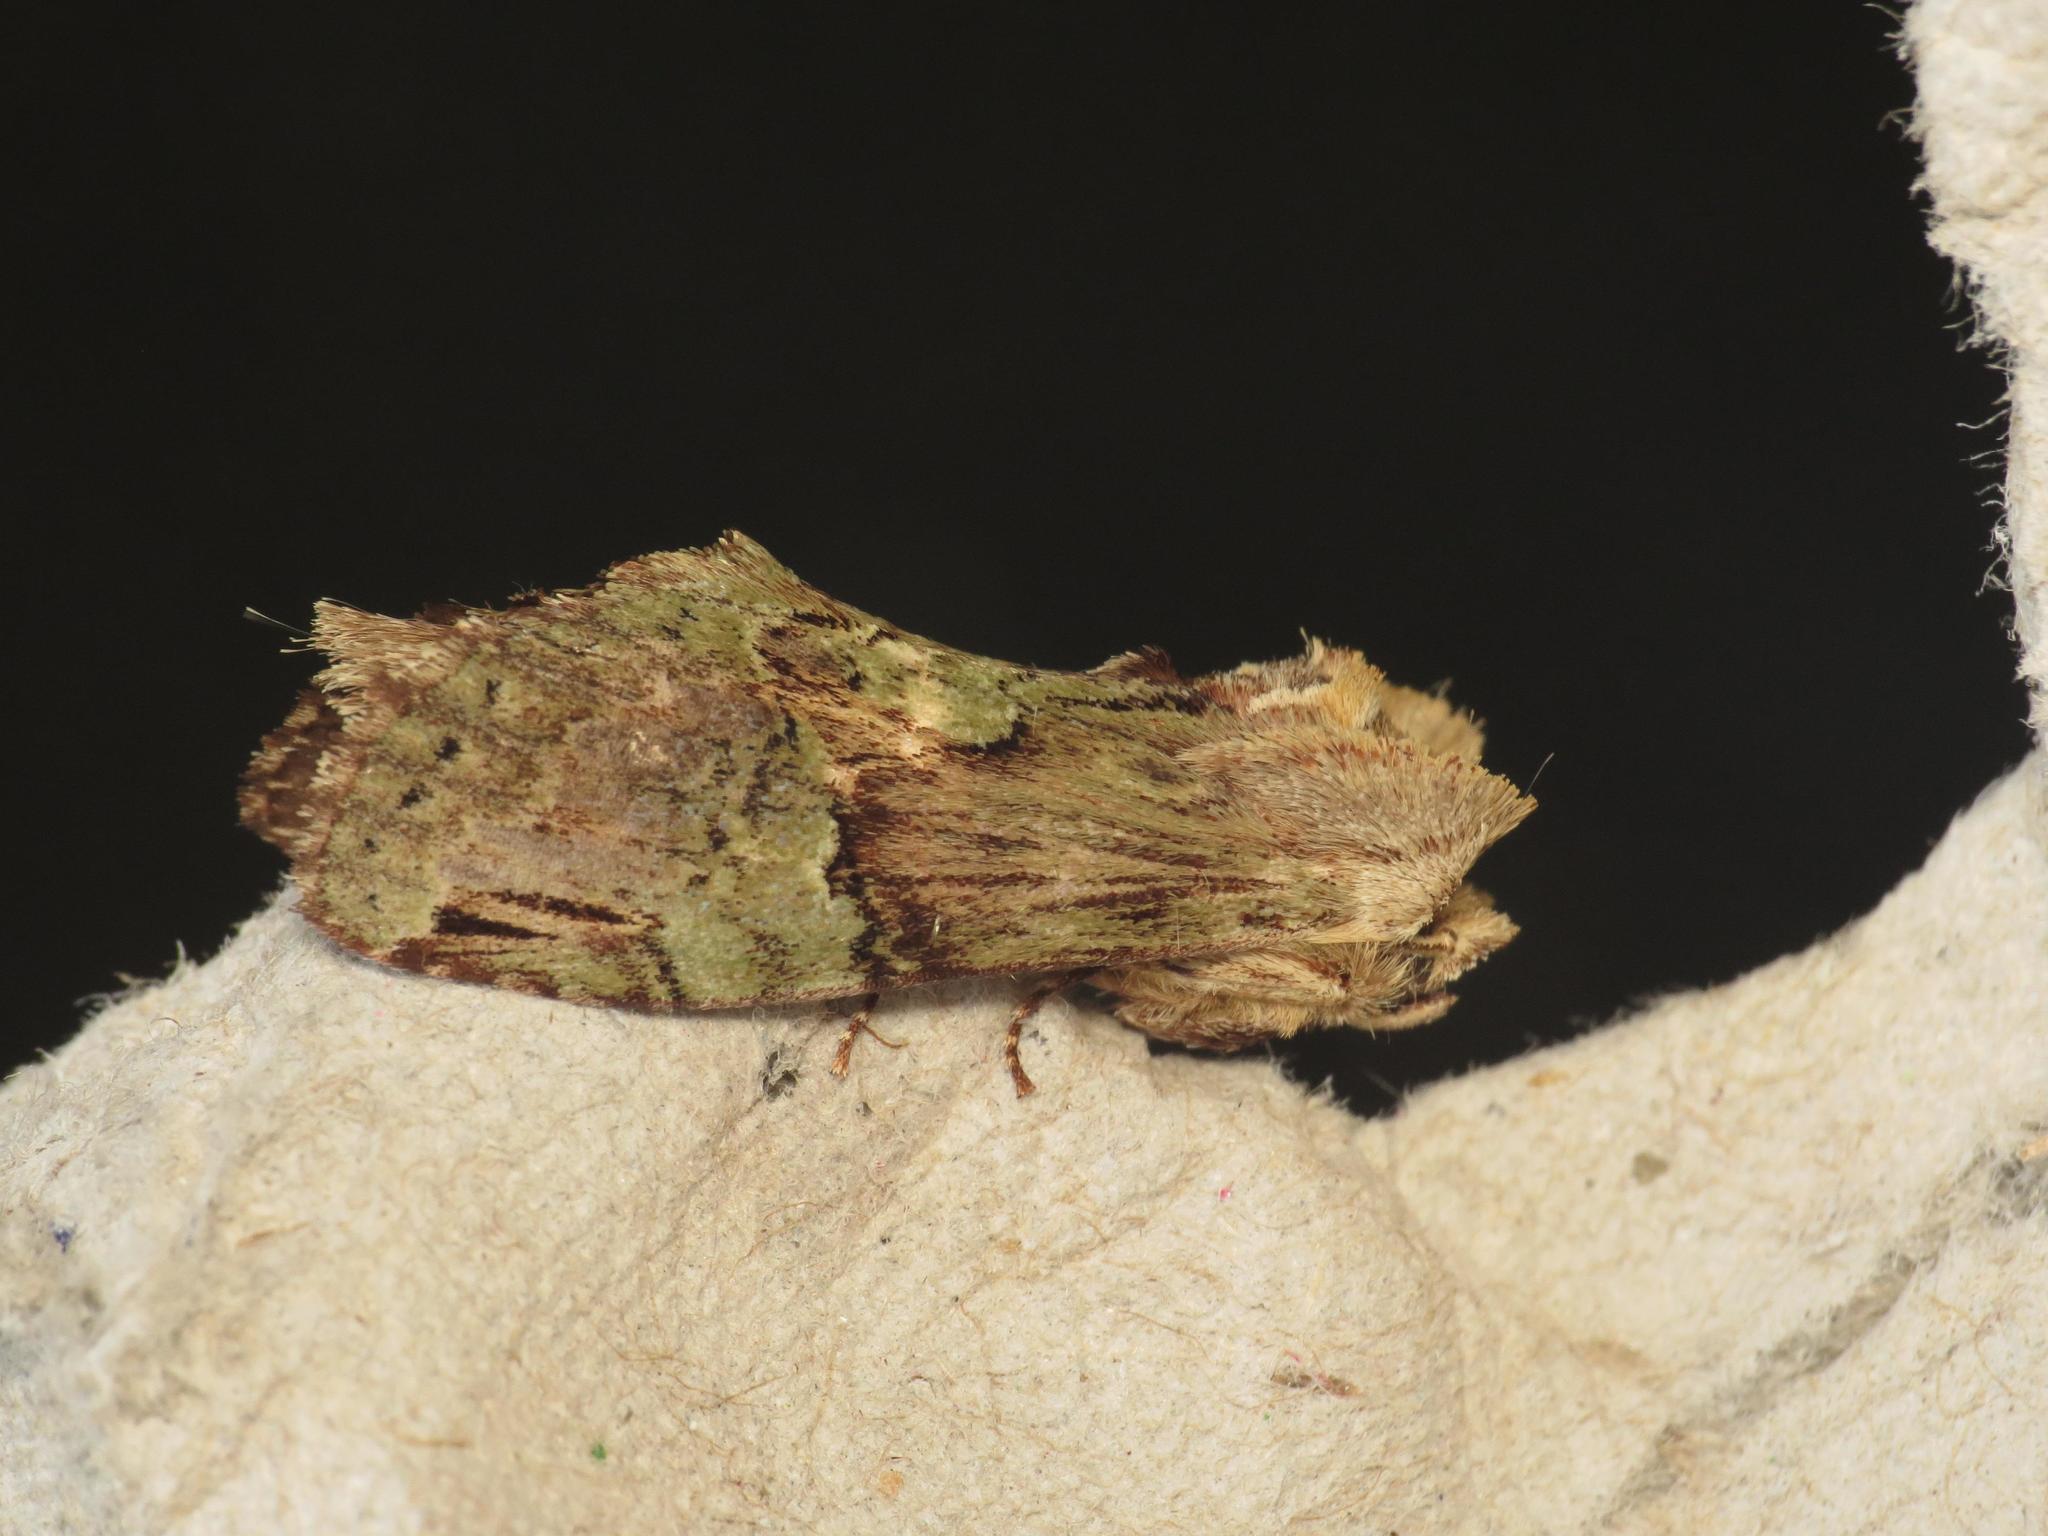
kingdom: Animalia
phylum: Arthropoda
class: Insecta
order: Lepidoptera
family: Notodontidae
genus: Chadisra
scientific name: Chadisra Antithemerastis acrobela
